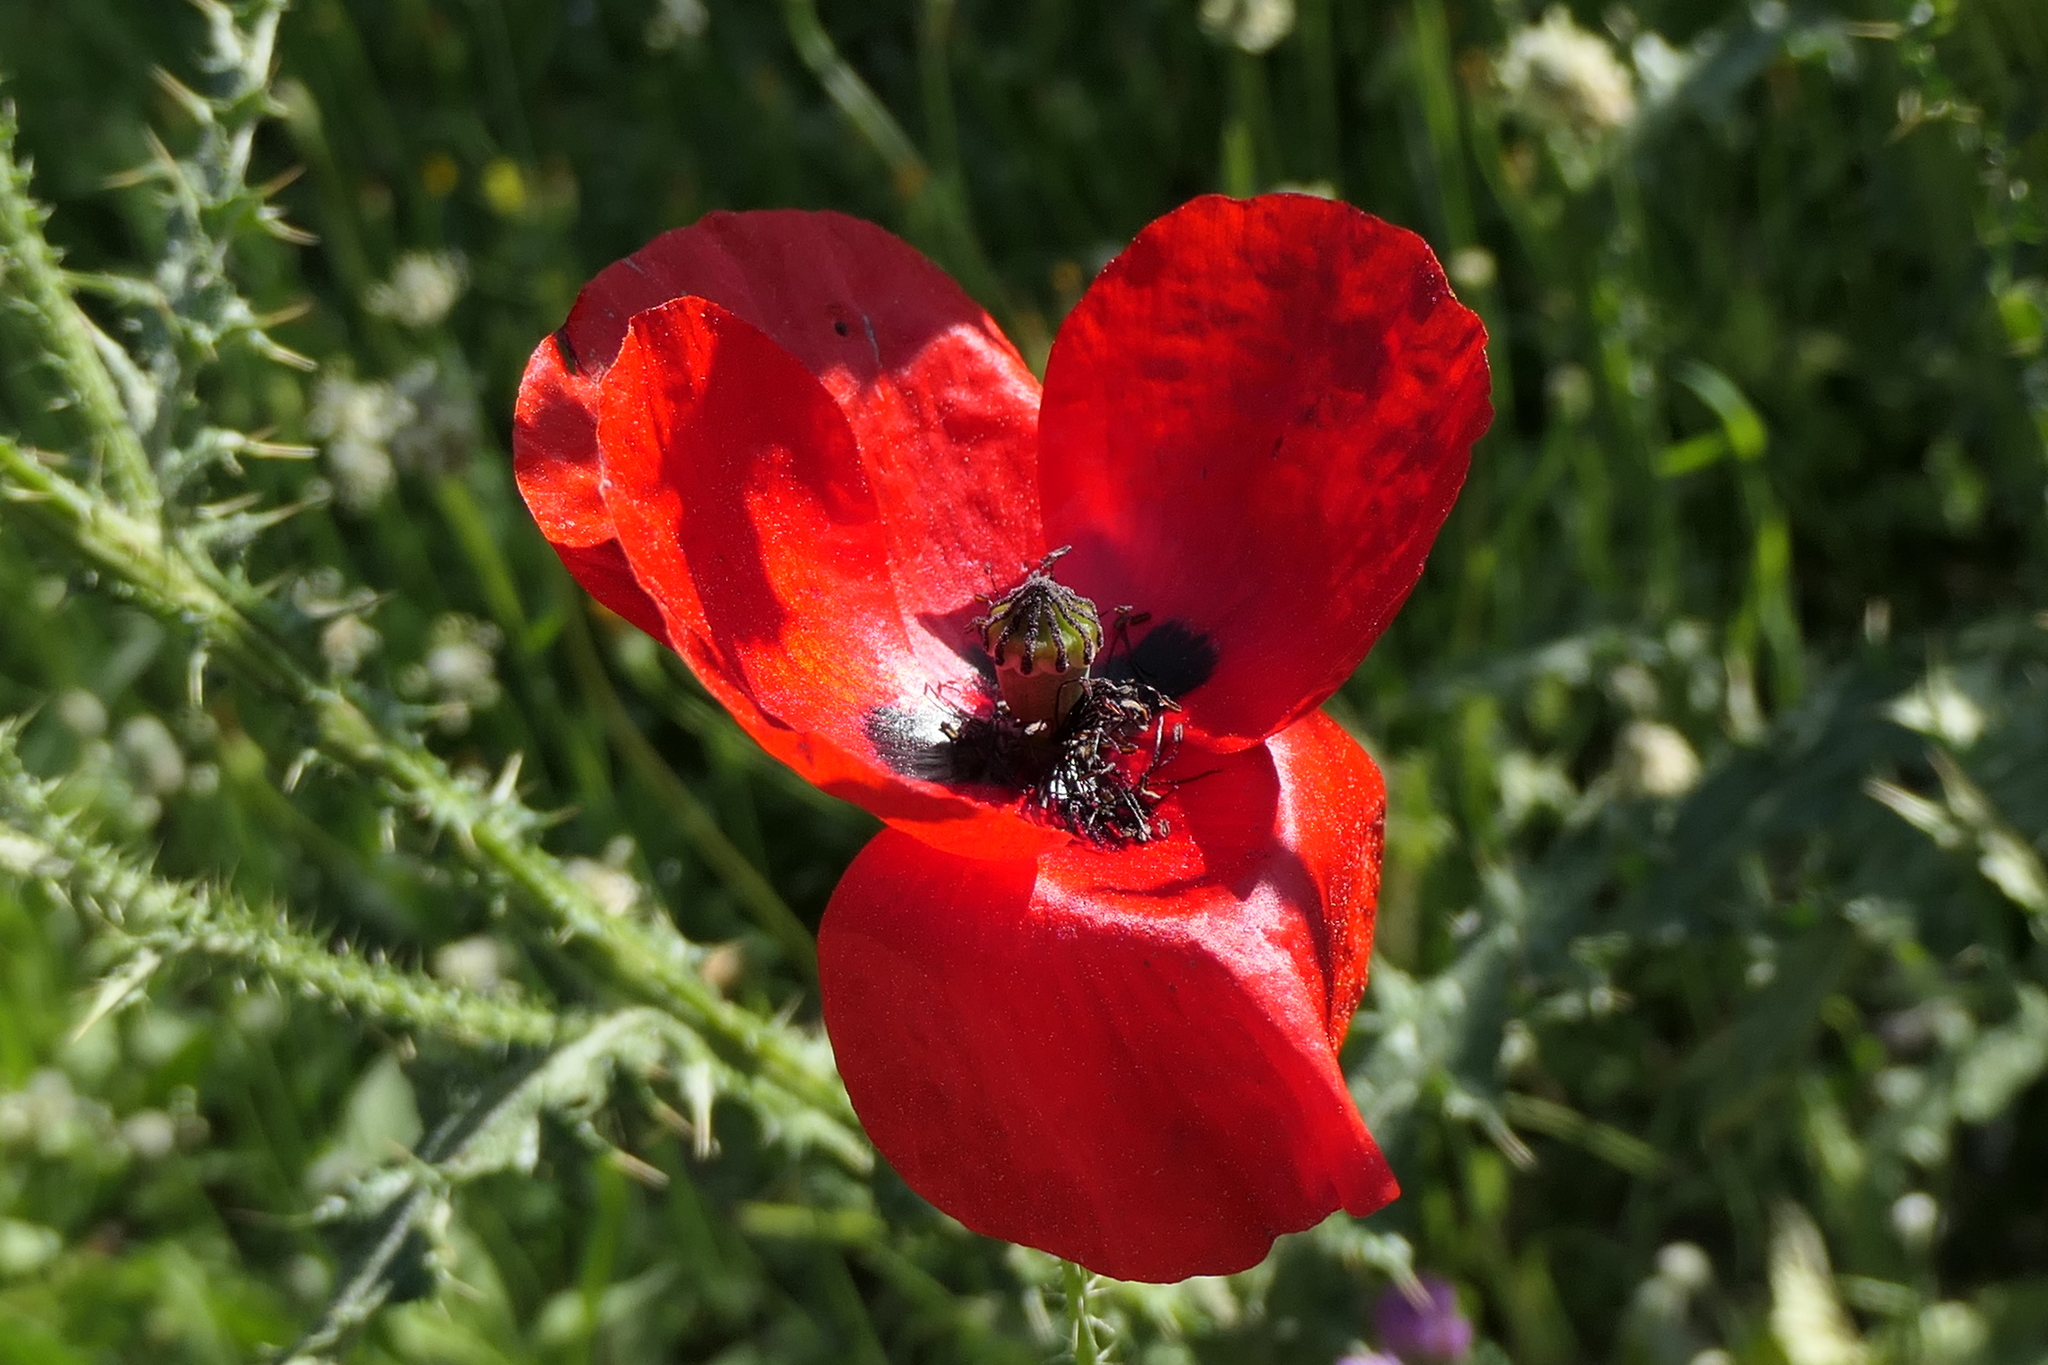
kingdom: Plantae
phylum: Tracheophyta
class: Magnoliopsida
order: Ranunculales
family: Papaveraceae
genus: Papaver
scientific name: Papaver rhoeas
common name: Corn poppy
